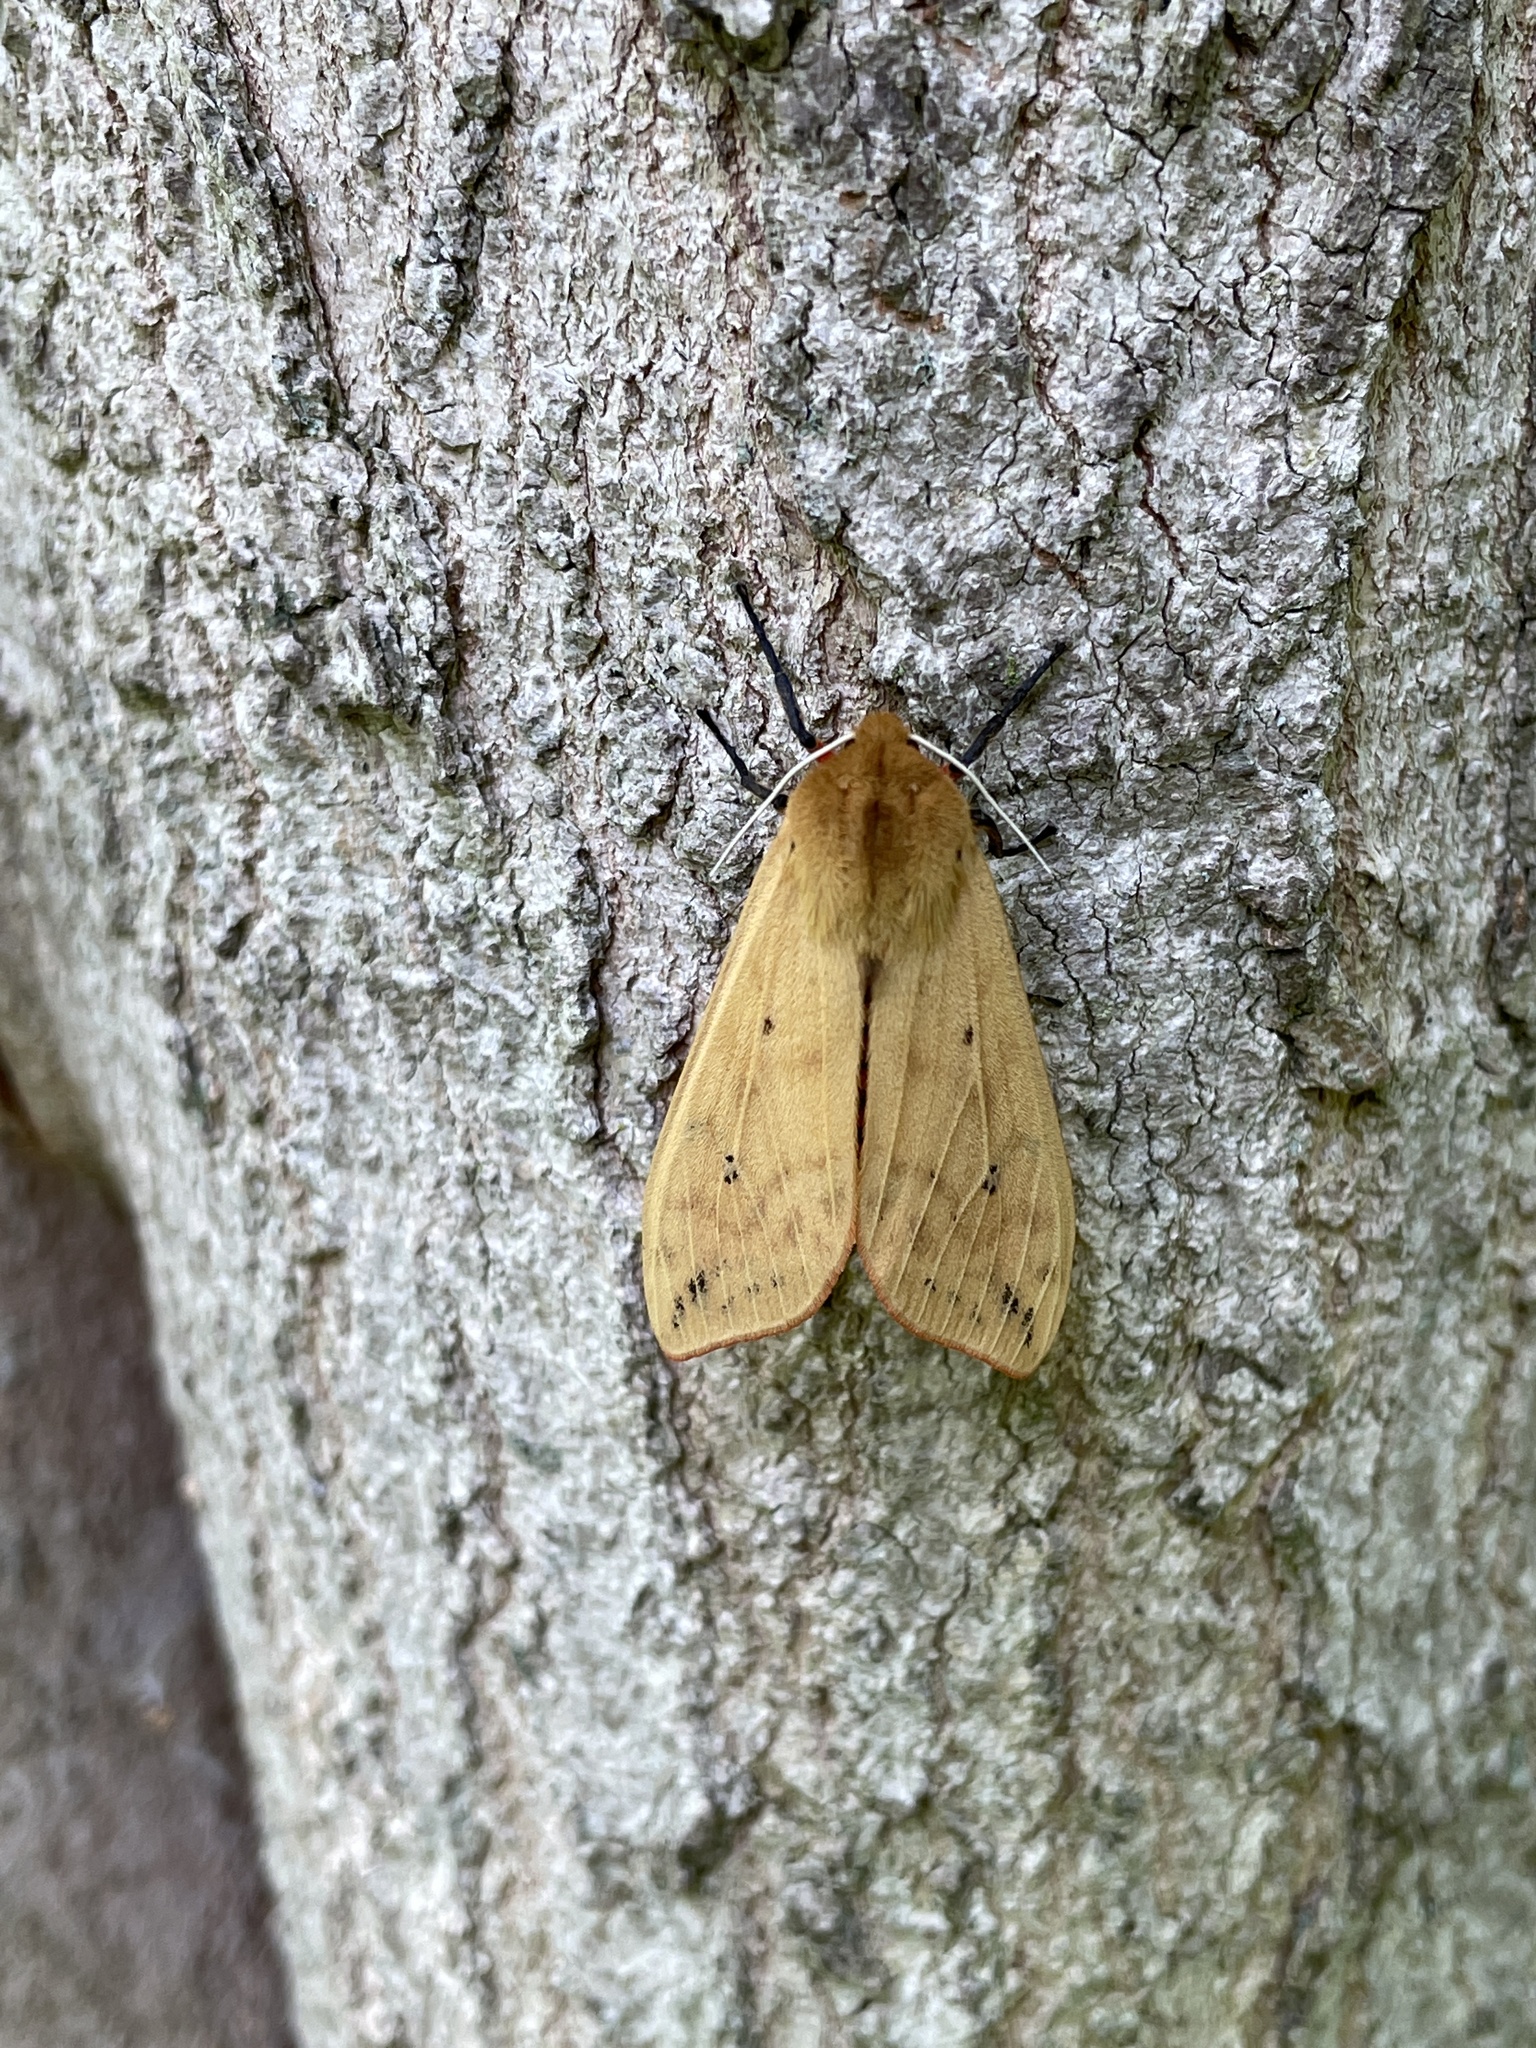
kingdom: Animalia
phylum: Arthropoda
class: Insecta
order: Lepidoptera
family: Erebidae
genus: Pyrrharctia
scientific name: Pyrrharctia isabella
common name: Isabella tiger moth
